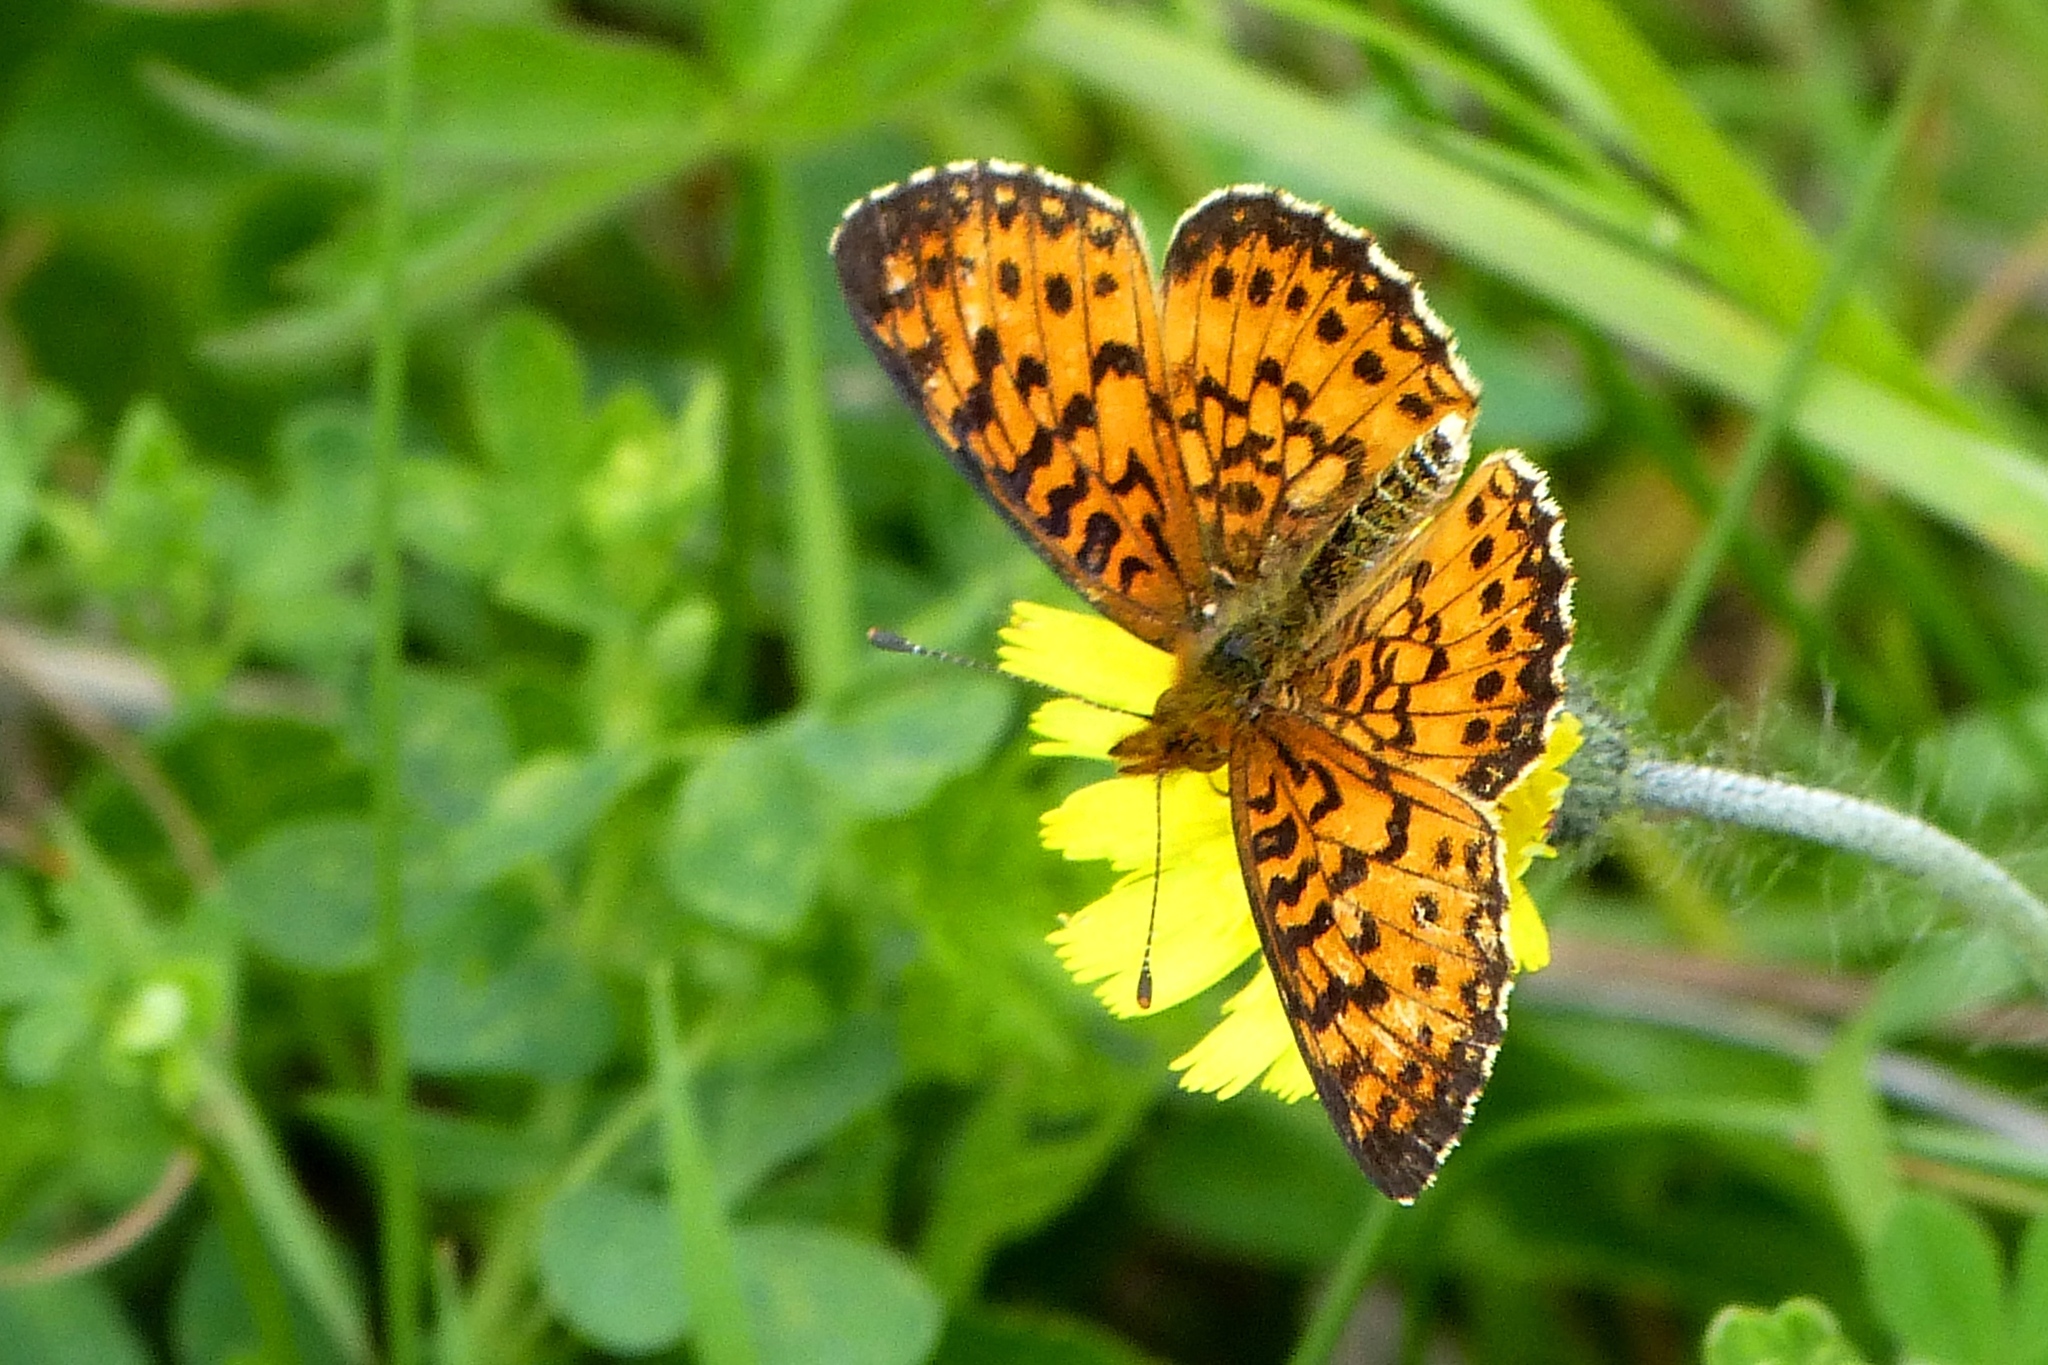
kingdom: Animalia
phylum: Arthropoda
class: Insecta
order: Lepidoptera
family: Nymphalidae
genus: Boloria
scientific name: Boloria
